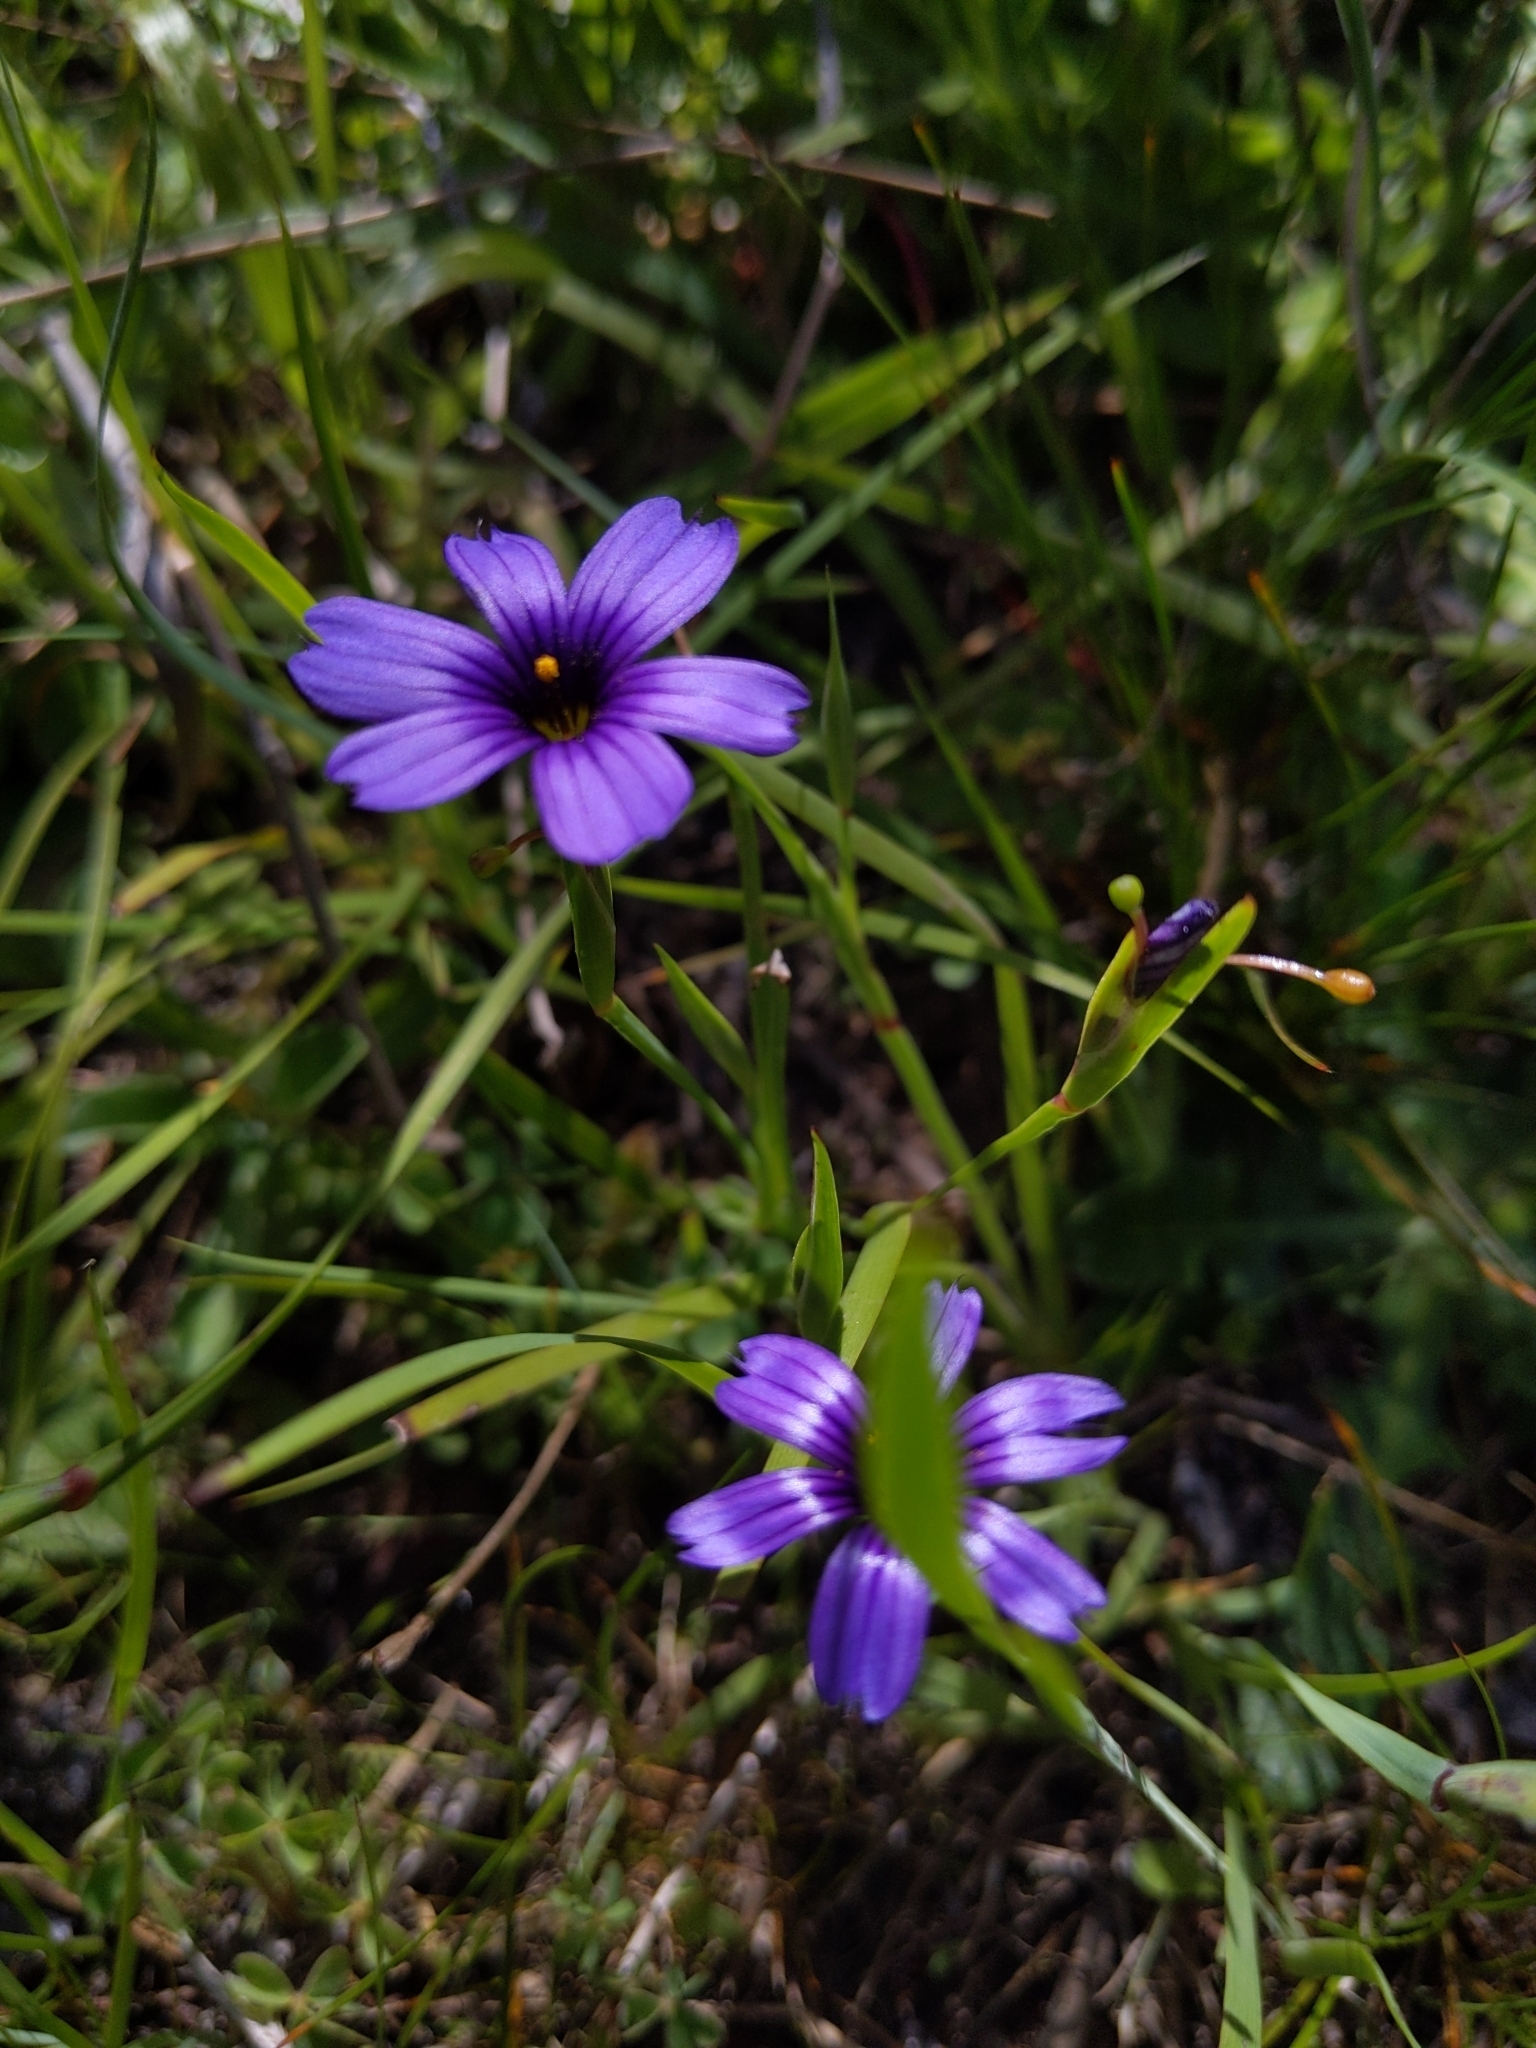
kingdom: Plantae
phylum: Tracheophyta
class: Liliopsida
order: Asparagales
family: Iridaceae
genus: Sisyrinchium
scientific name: Sisyrinchium bellum
